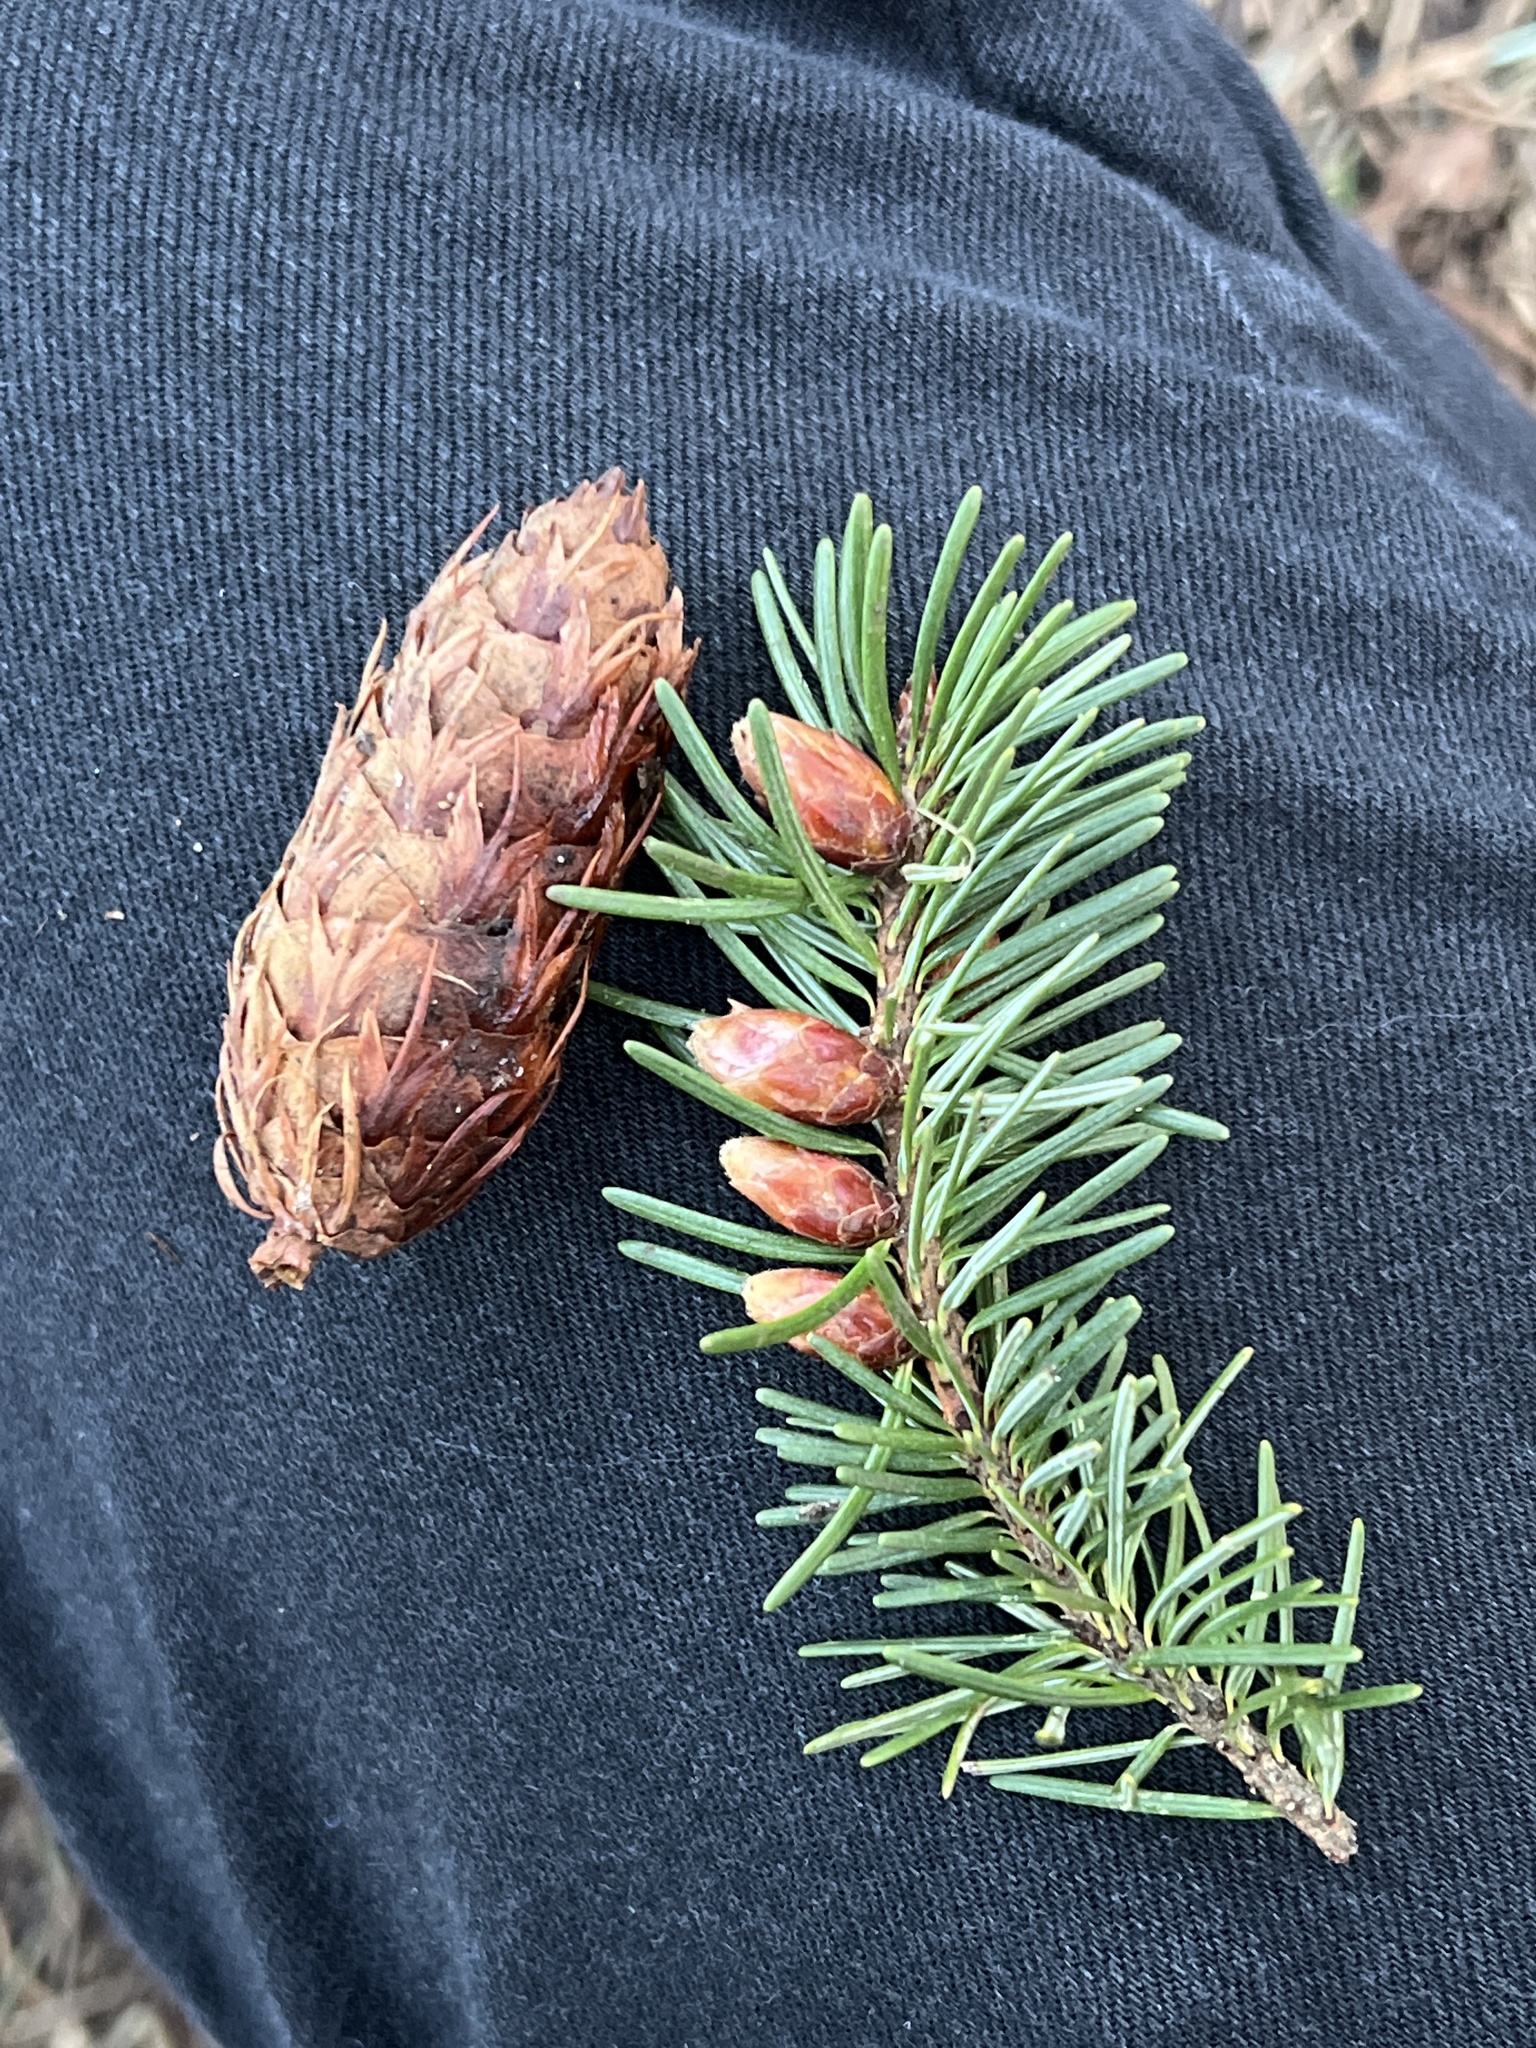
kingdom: Plantae
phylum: Tracheophyta
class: Pinopsida
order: Pinales
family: Pinaceae
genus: Pseudotsuga
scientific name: Pseudotsuga menziesii
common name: Douglas fir
